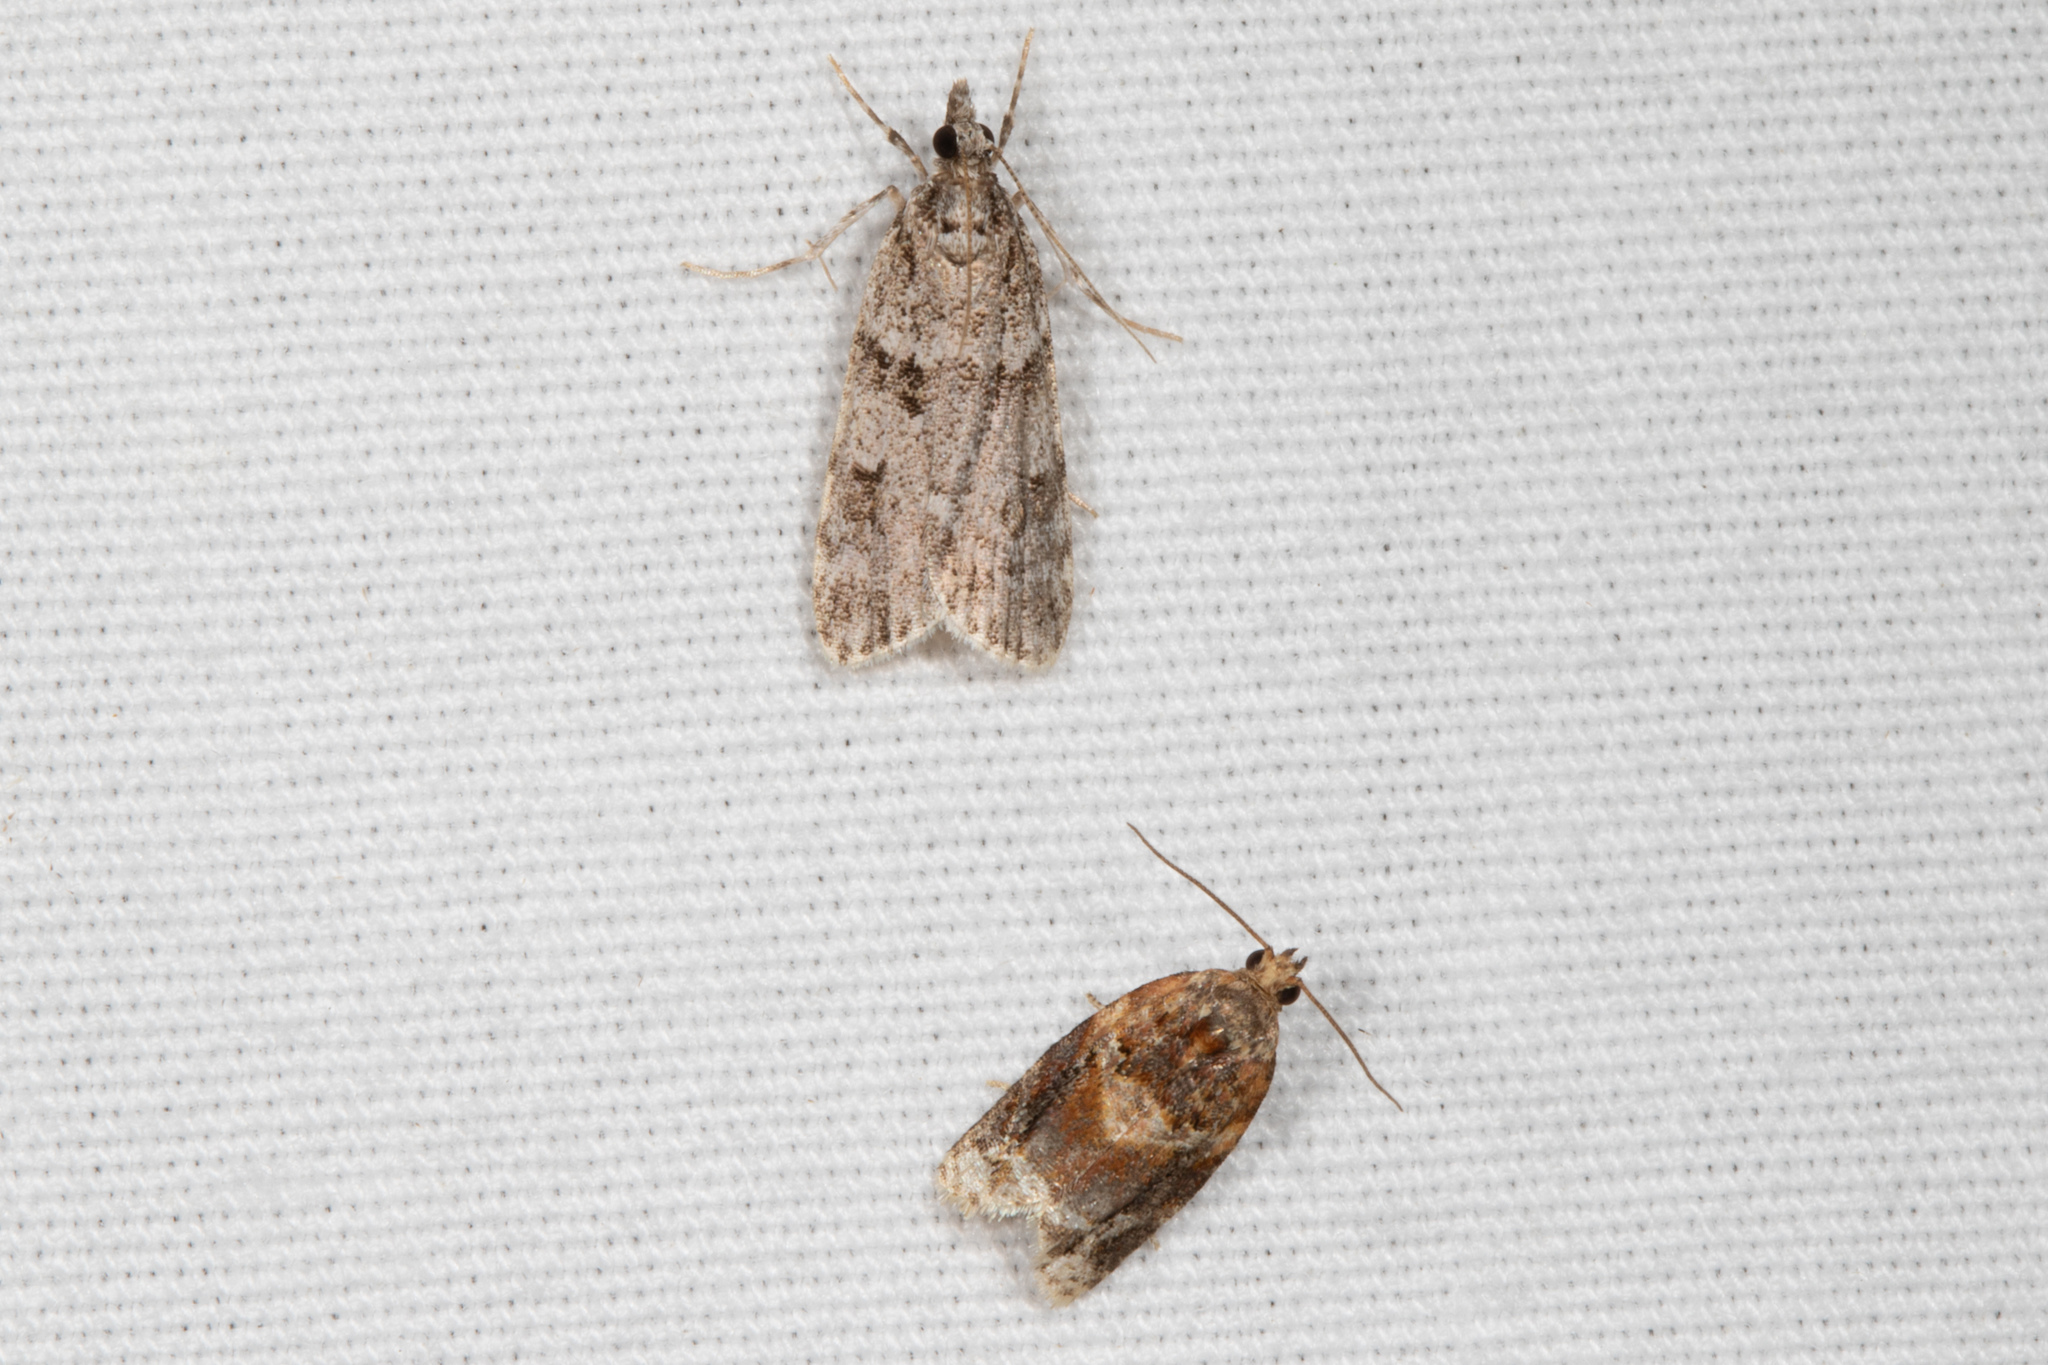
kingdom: Animalia
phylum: Arthropoda
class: Insecta
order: Lepidoptera
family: Tortricidae
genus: Argyrotaenia
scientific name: Argyrotaenia velutinana
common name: Red-banded leafroller moth
